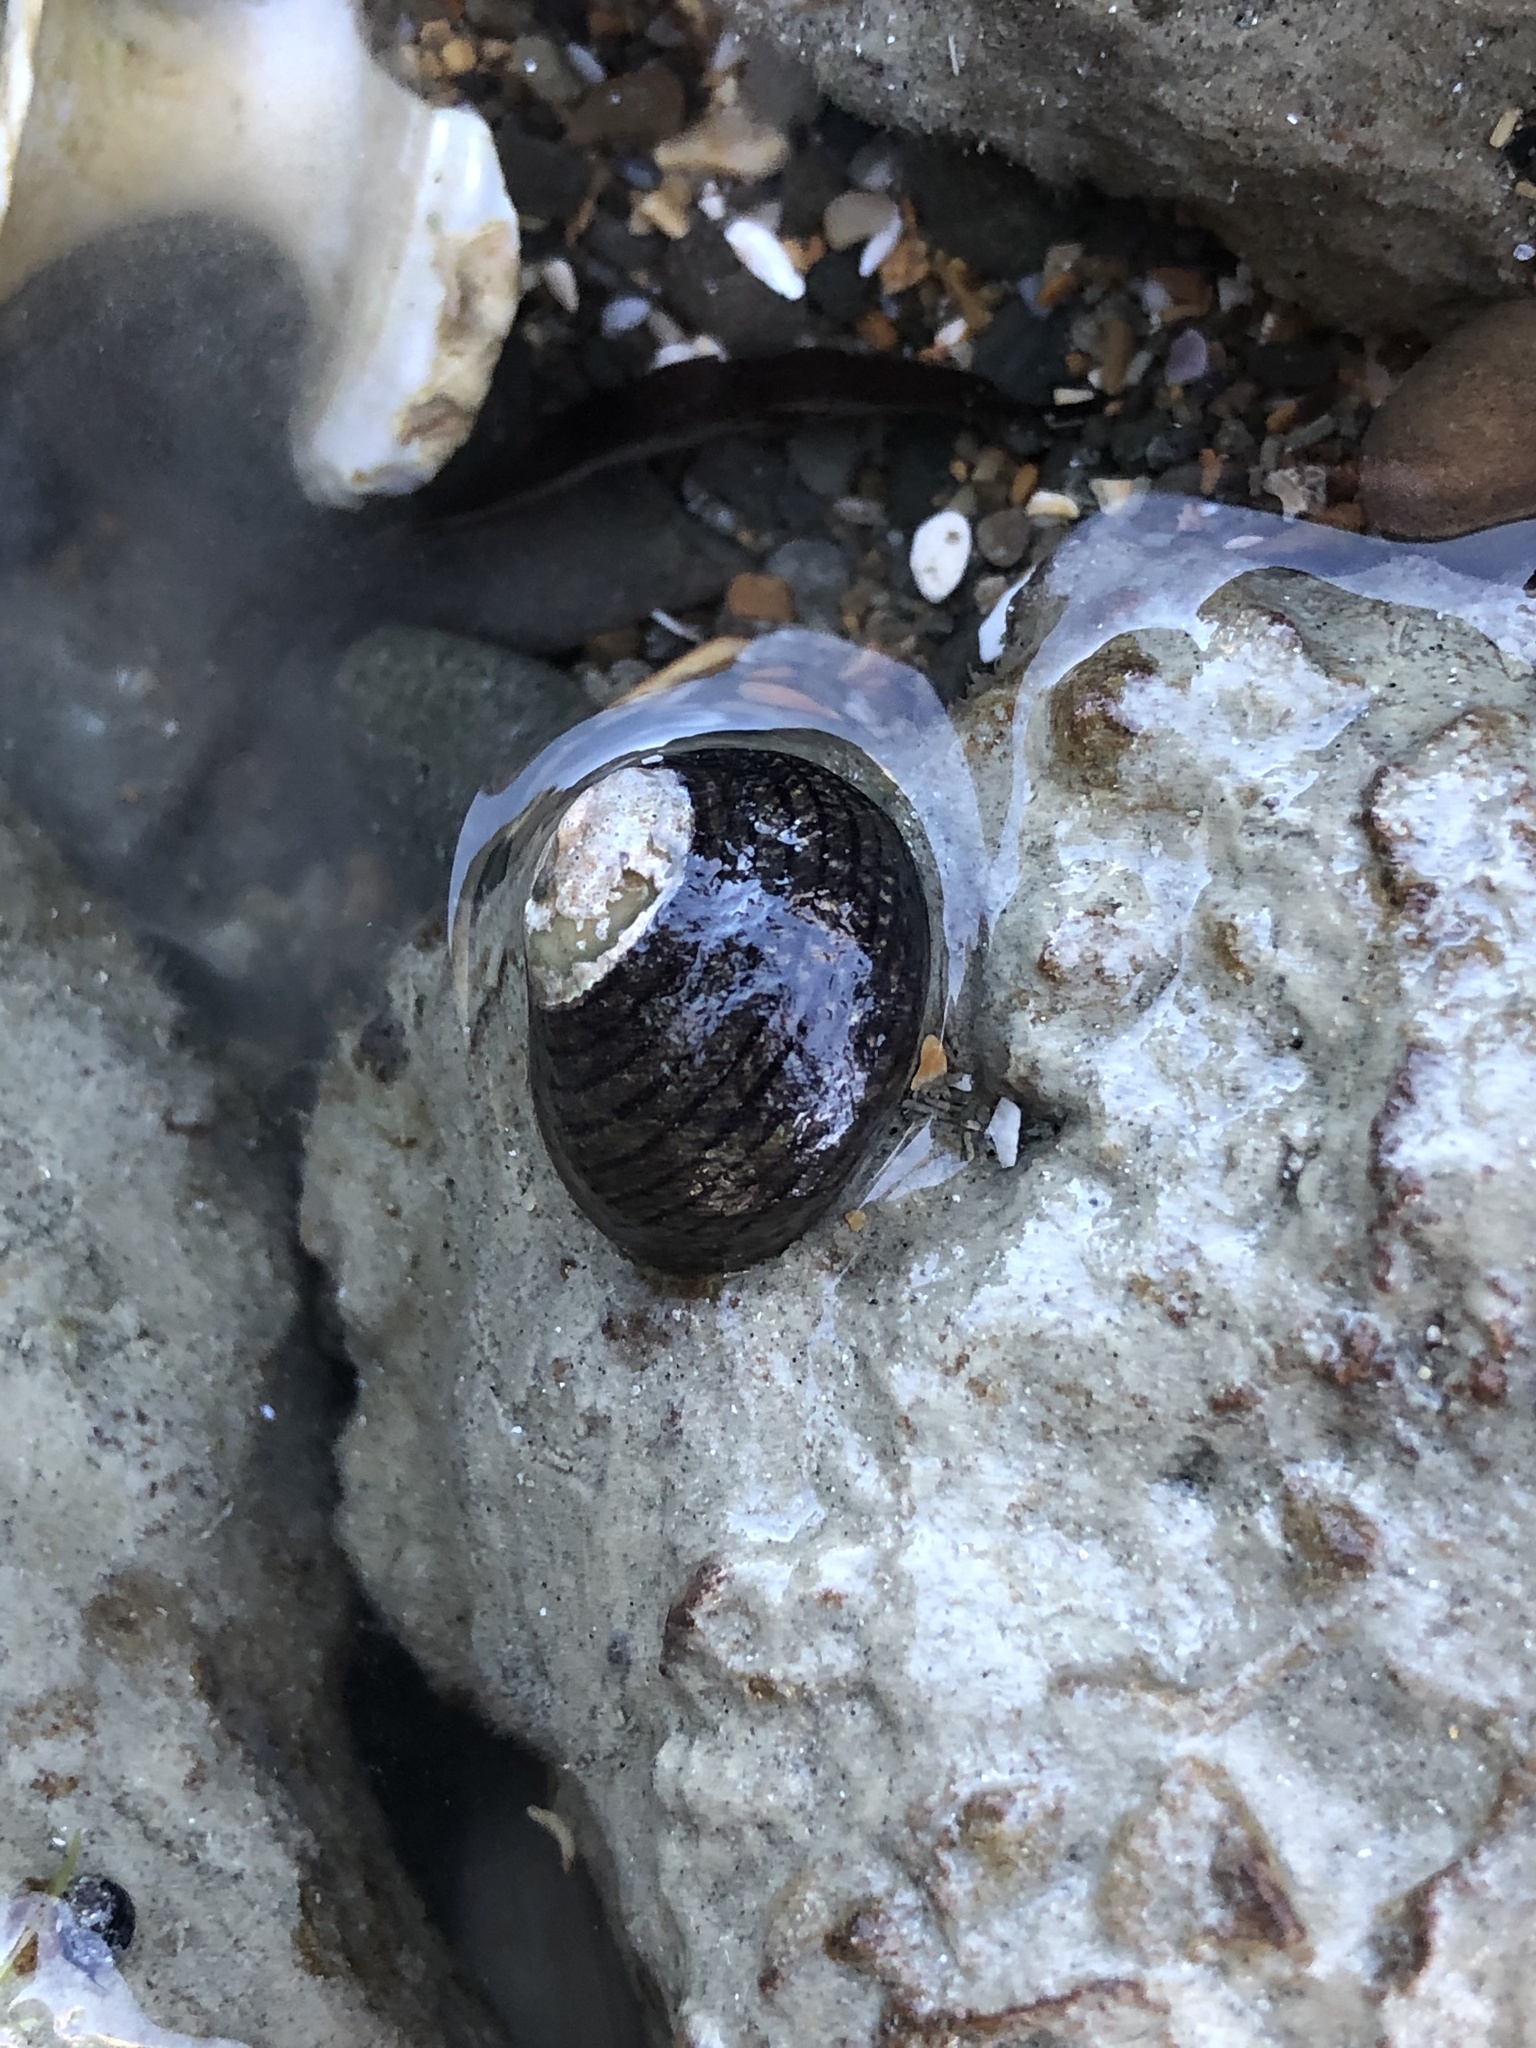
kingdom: Animalia
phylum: Mollusca
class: Gastropoda
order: Trochida
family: Trochidae
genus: Diloma
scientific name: Diloma aethiops
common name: Scorched monodont
